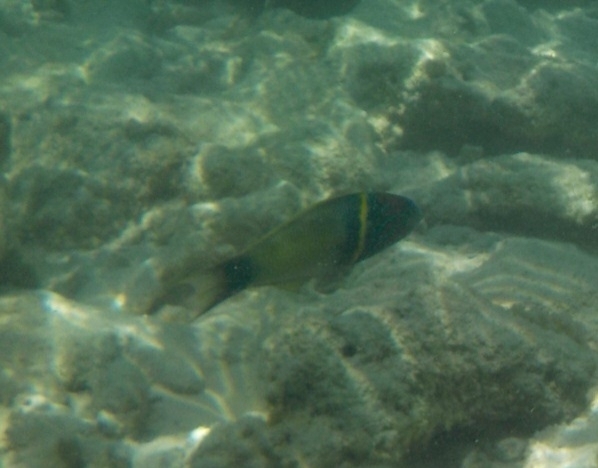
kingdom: Animalia
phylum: Chordata
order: Perciformes
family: Labridae
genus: Thalassoma
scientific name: Thalassoma hebraicum
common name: Goldbar wrasse
